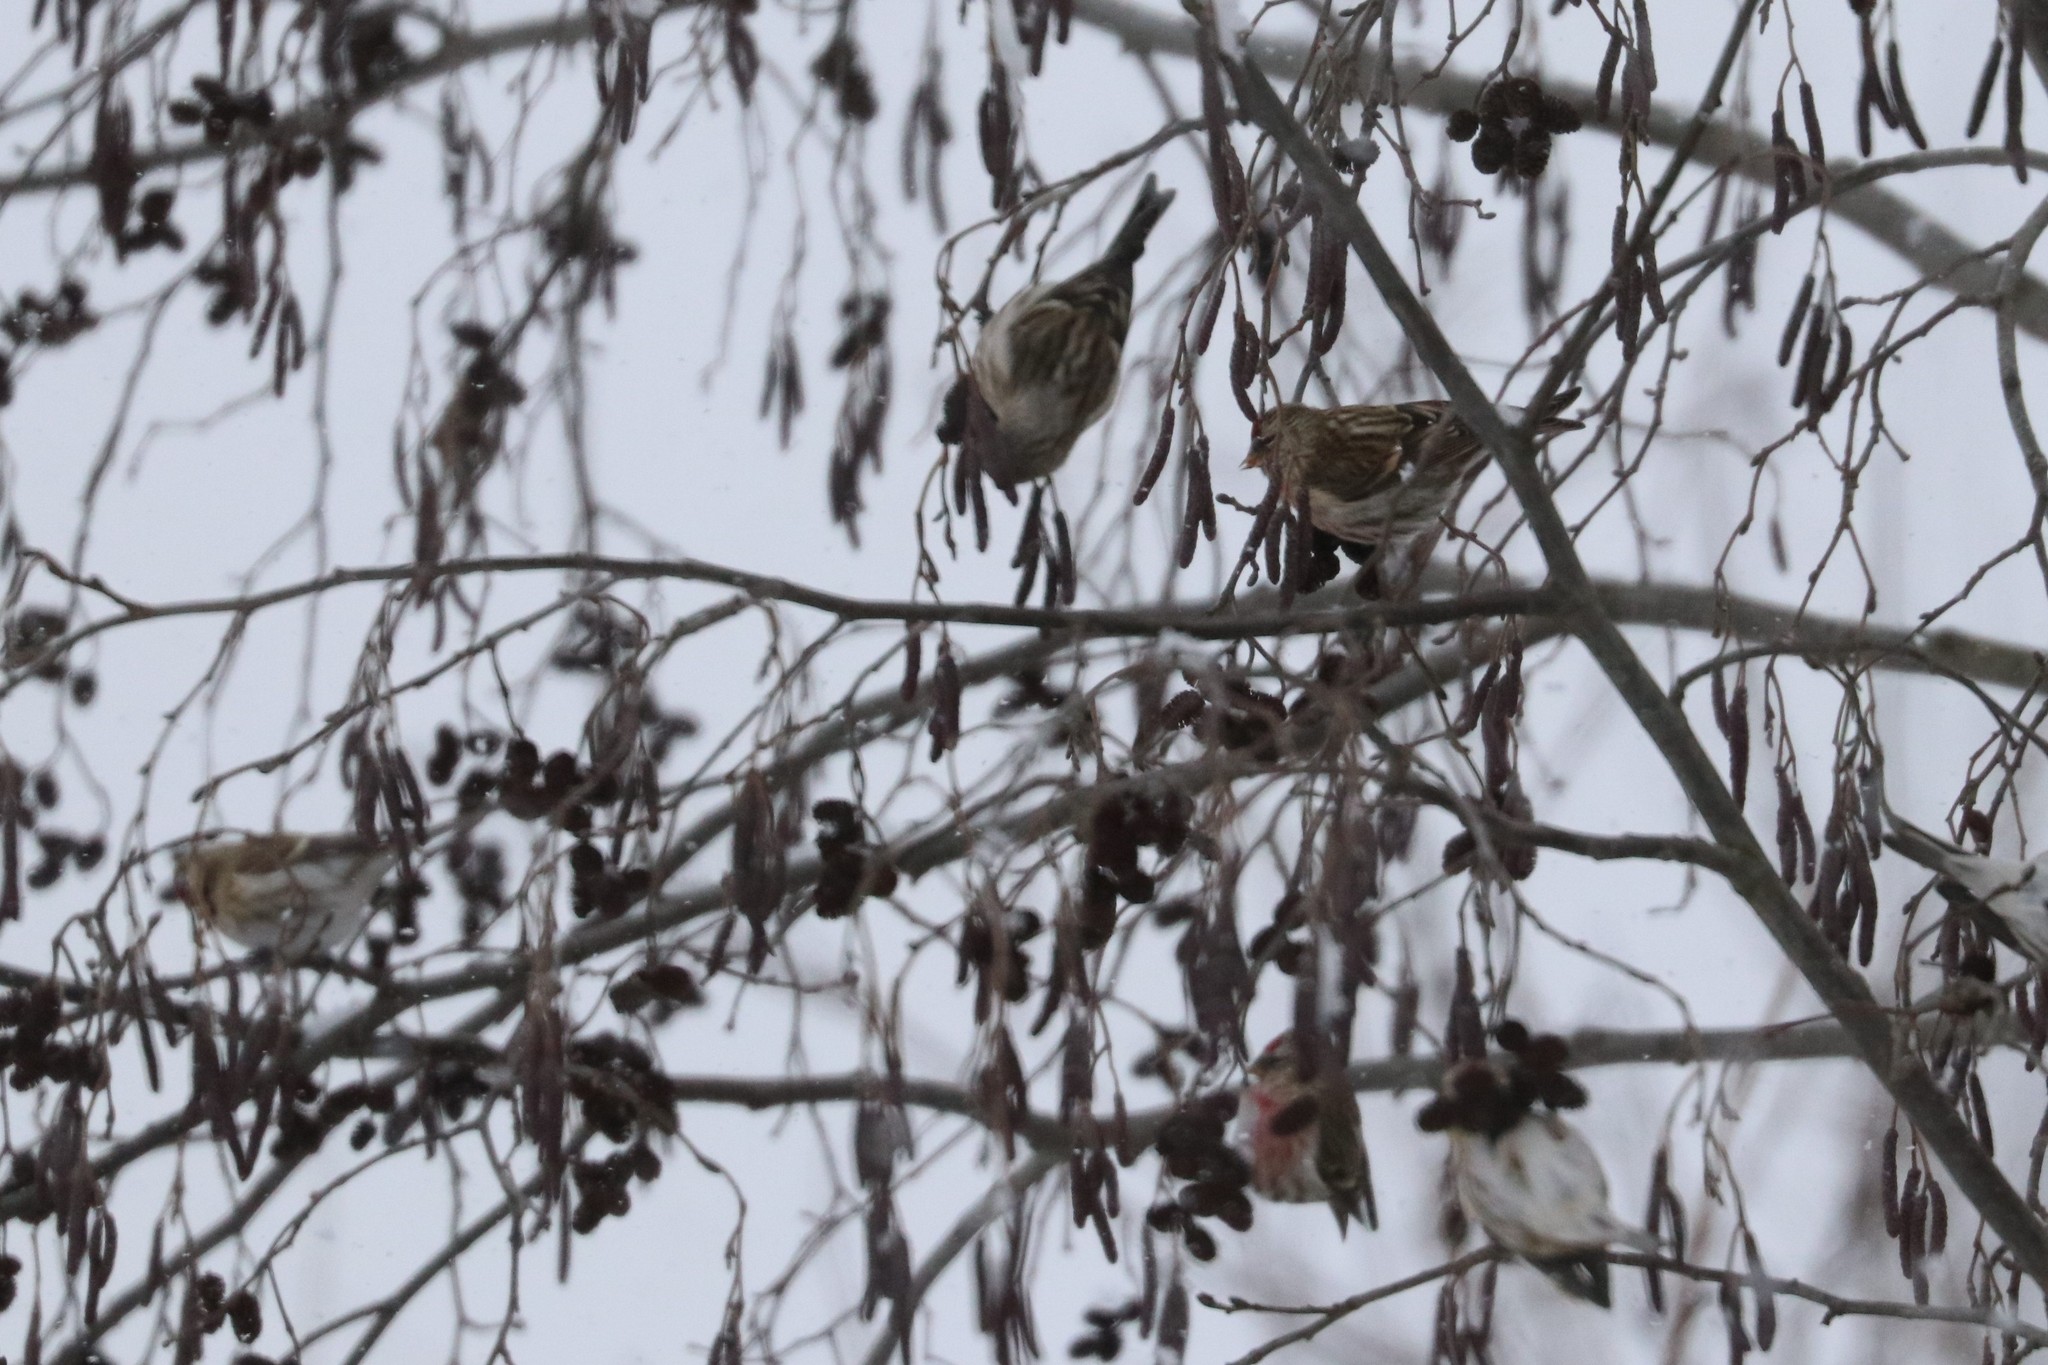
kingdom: Animalia
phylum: Chordata
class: Aves
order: Passeriformes
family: Fringillidae
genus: Acanthis
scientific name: Acanthis flammea
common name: Common redpoll
